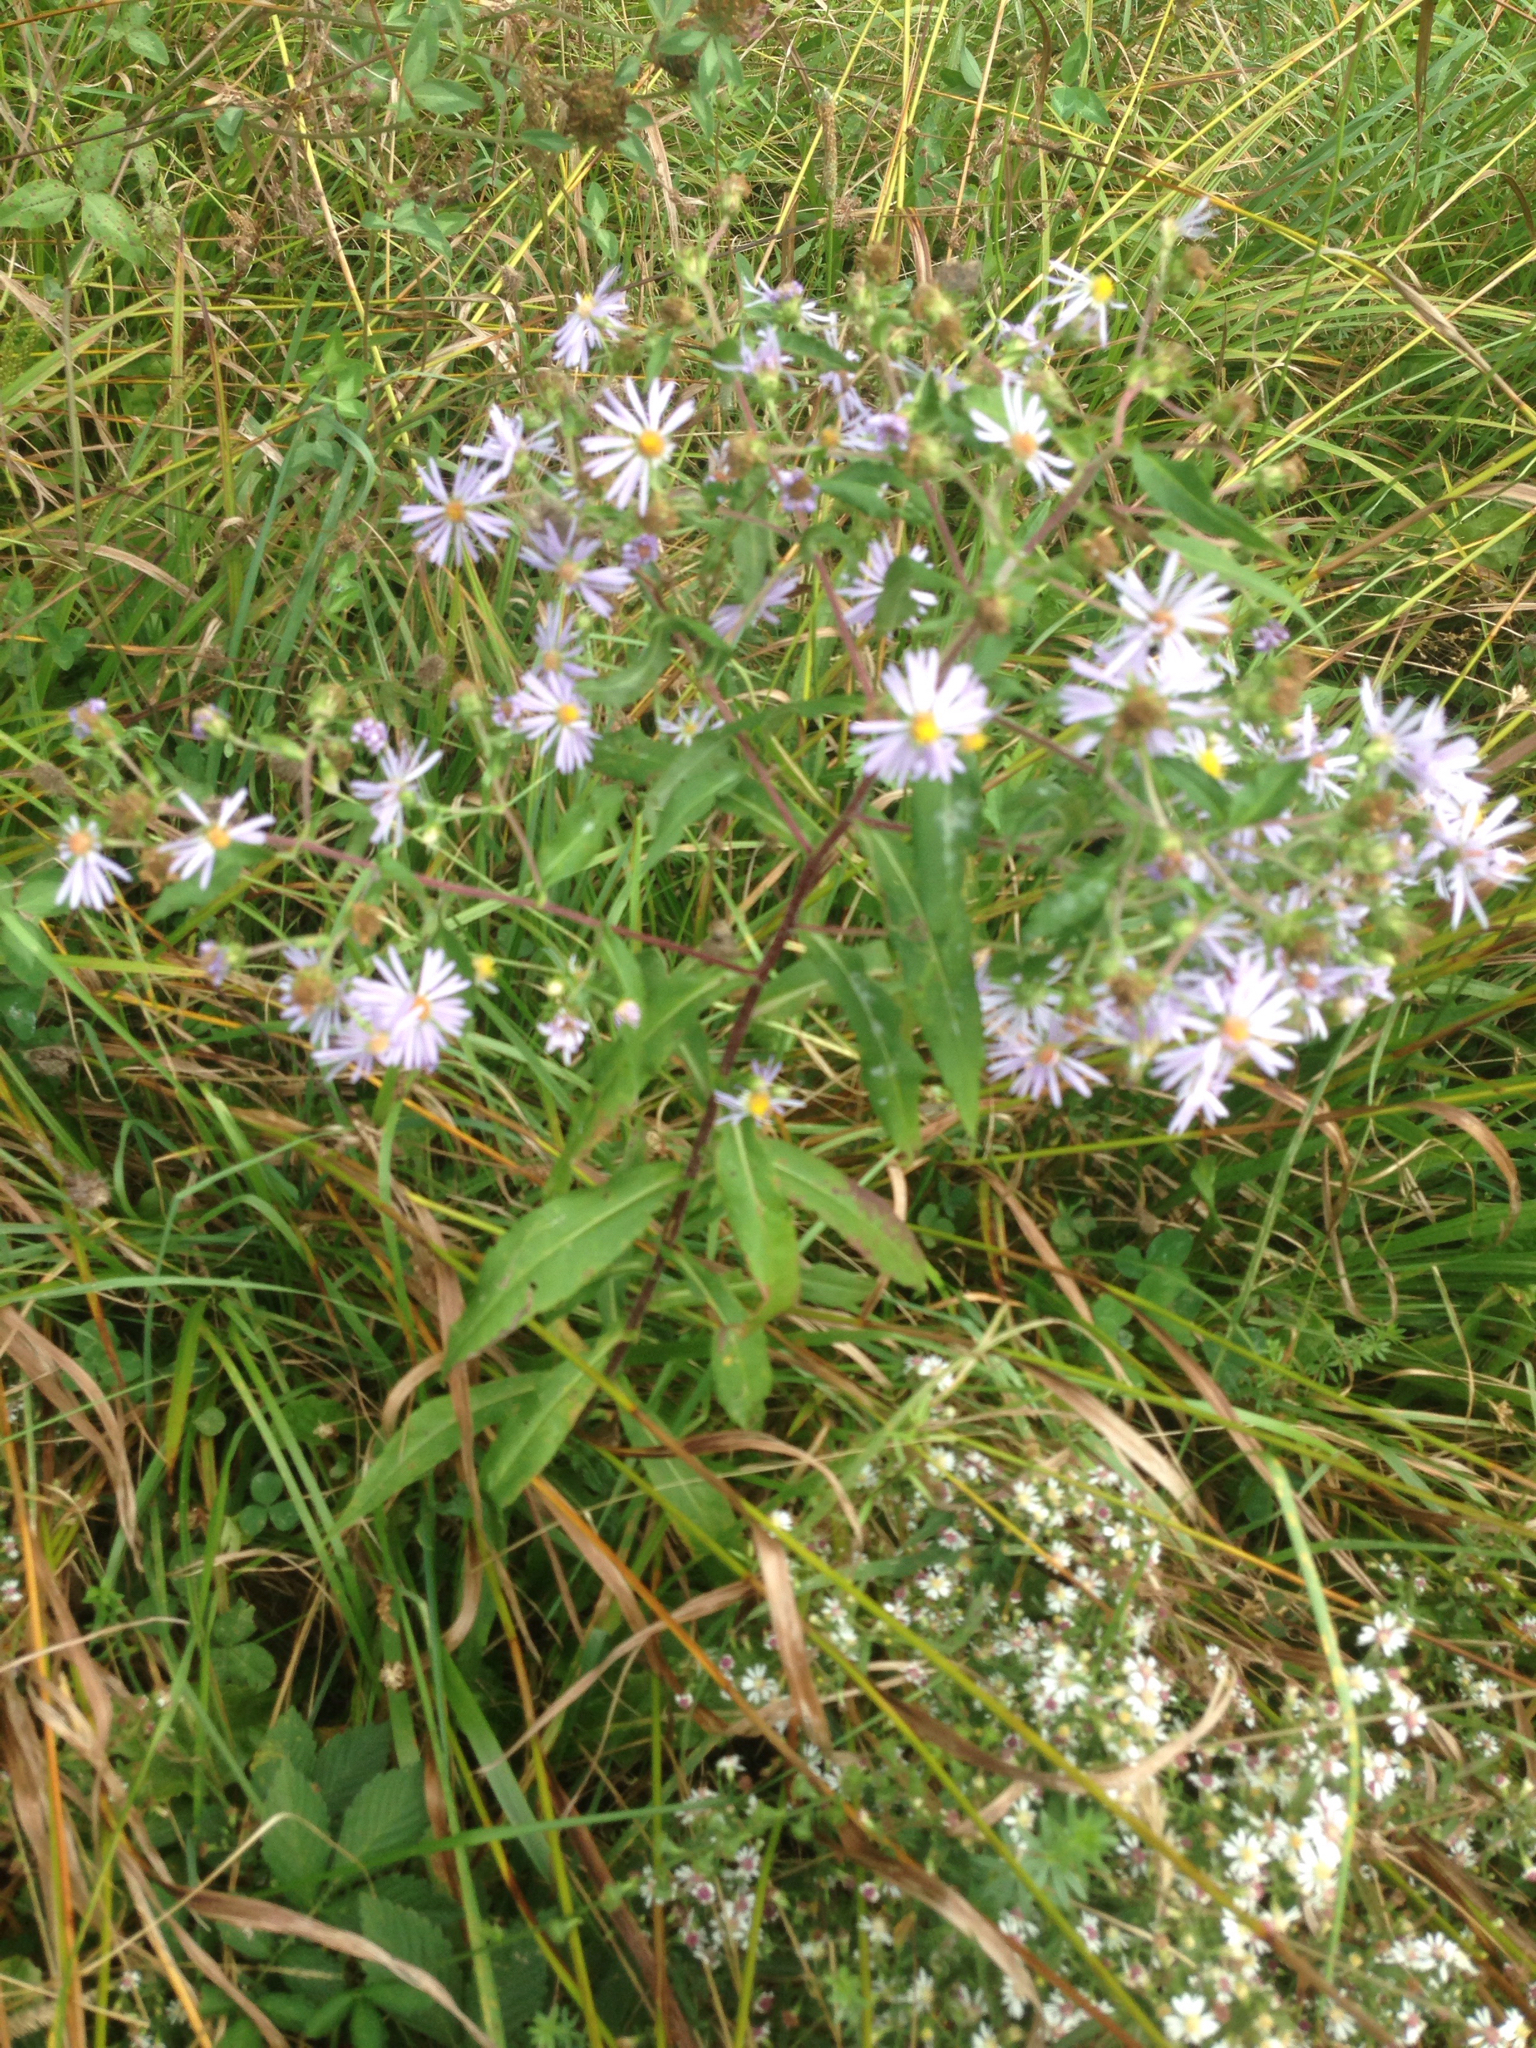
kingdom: Plantae
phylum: Tracheophyta
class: Magnoliopsida
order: Asterales
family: Asteraceae
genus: Symphyotrichum
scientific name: Symphyotrichum puniceum
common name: Bog aster
